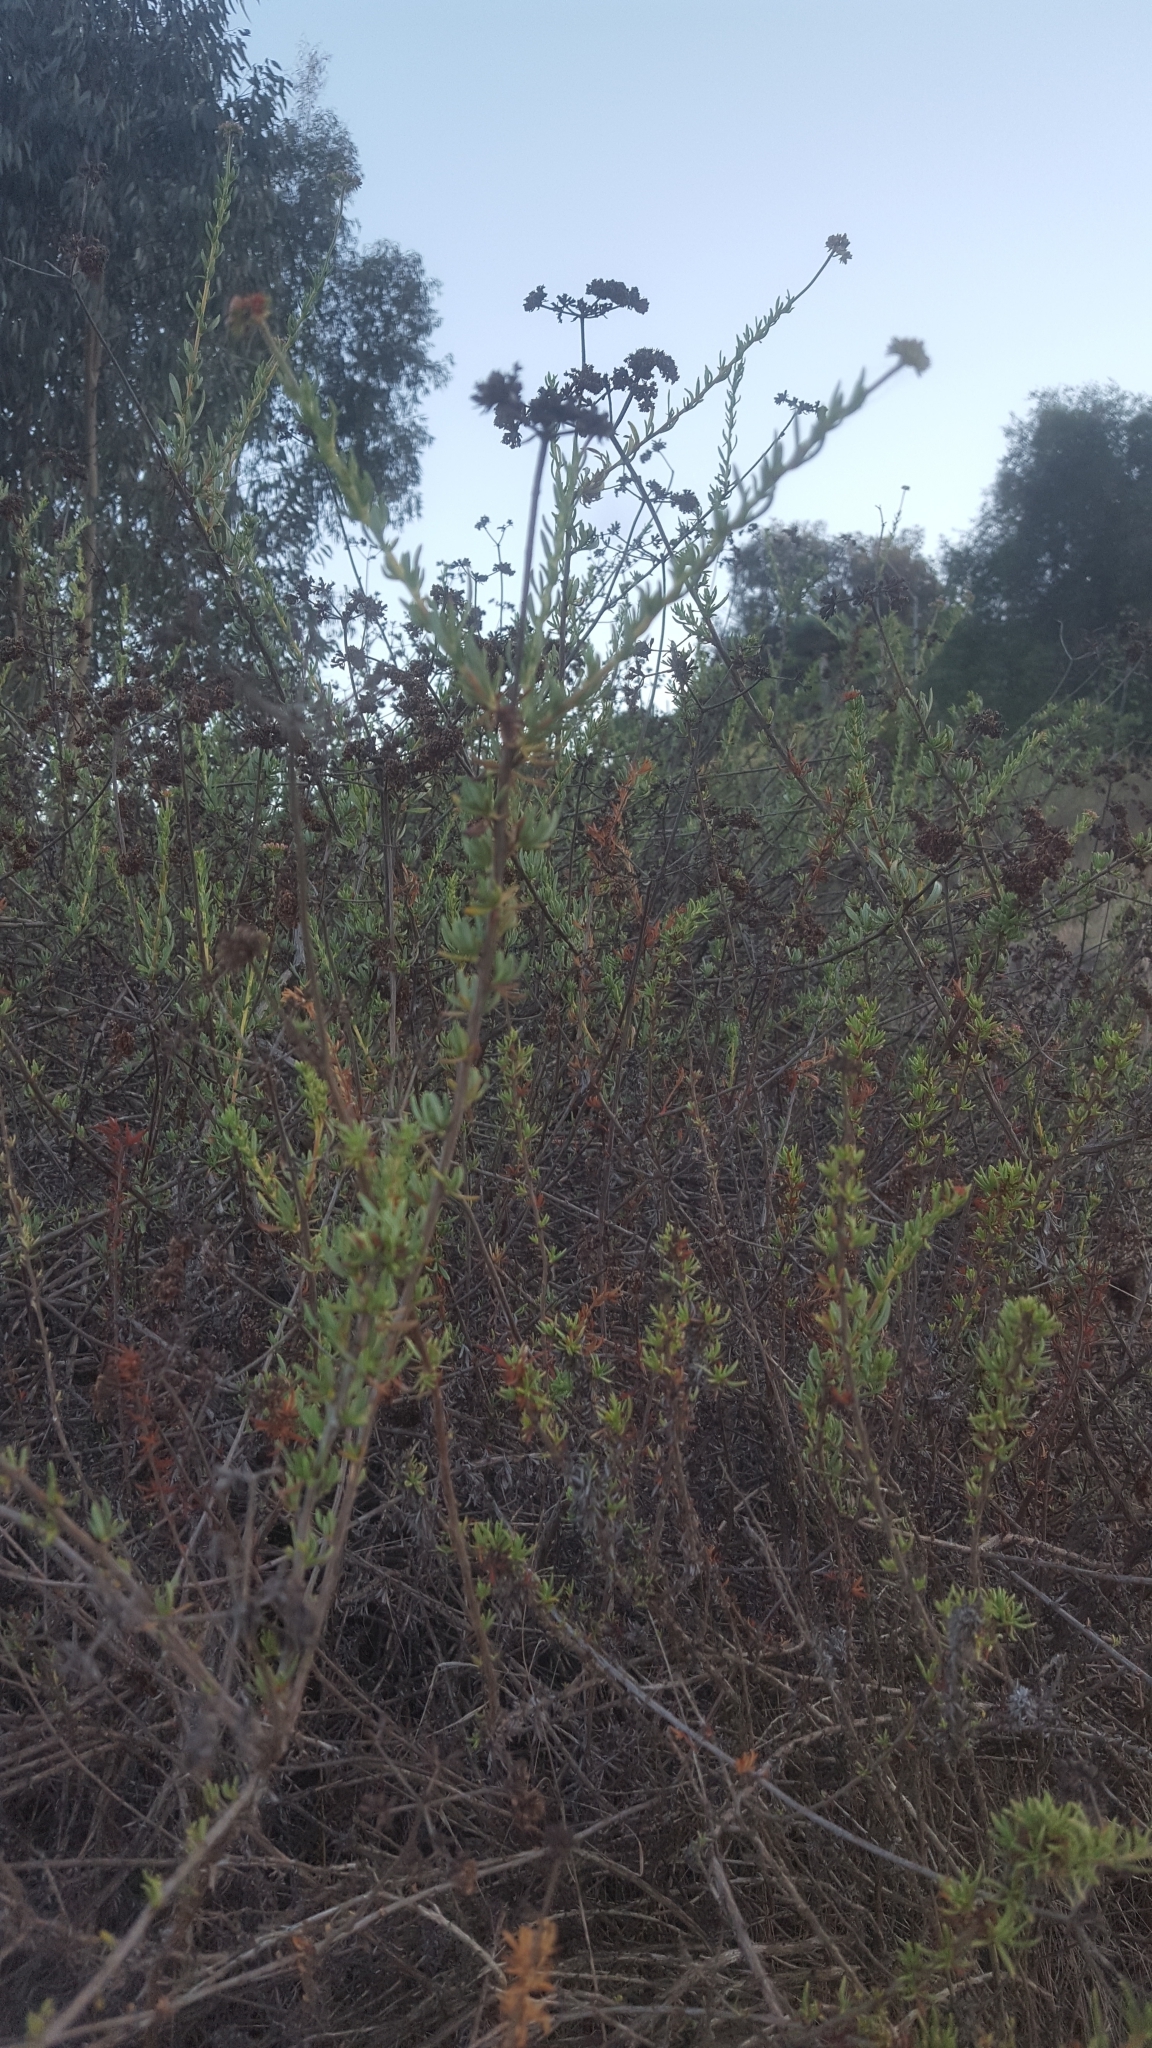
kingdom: Plantae
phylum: Tracheophyta
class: Magnoliopsida
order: Caryophyllales
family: Polygonaceae
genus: Eriogonum
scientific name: Eriogonum fasciculatum
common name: California wild buckwheat
